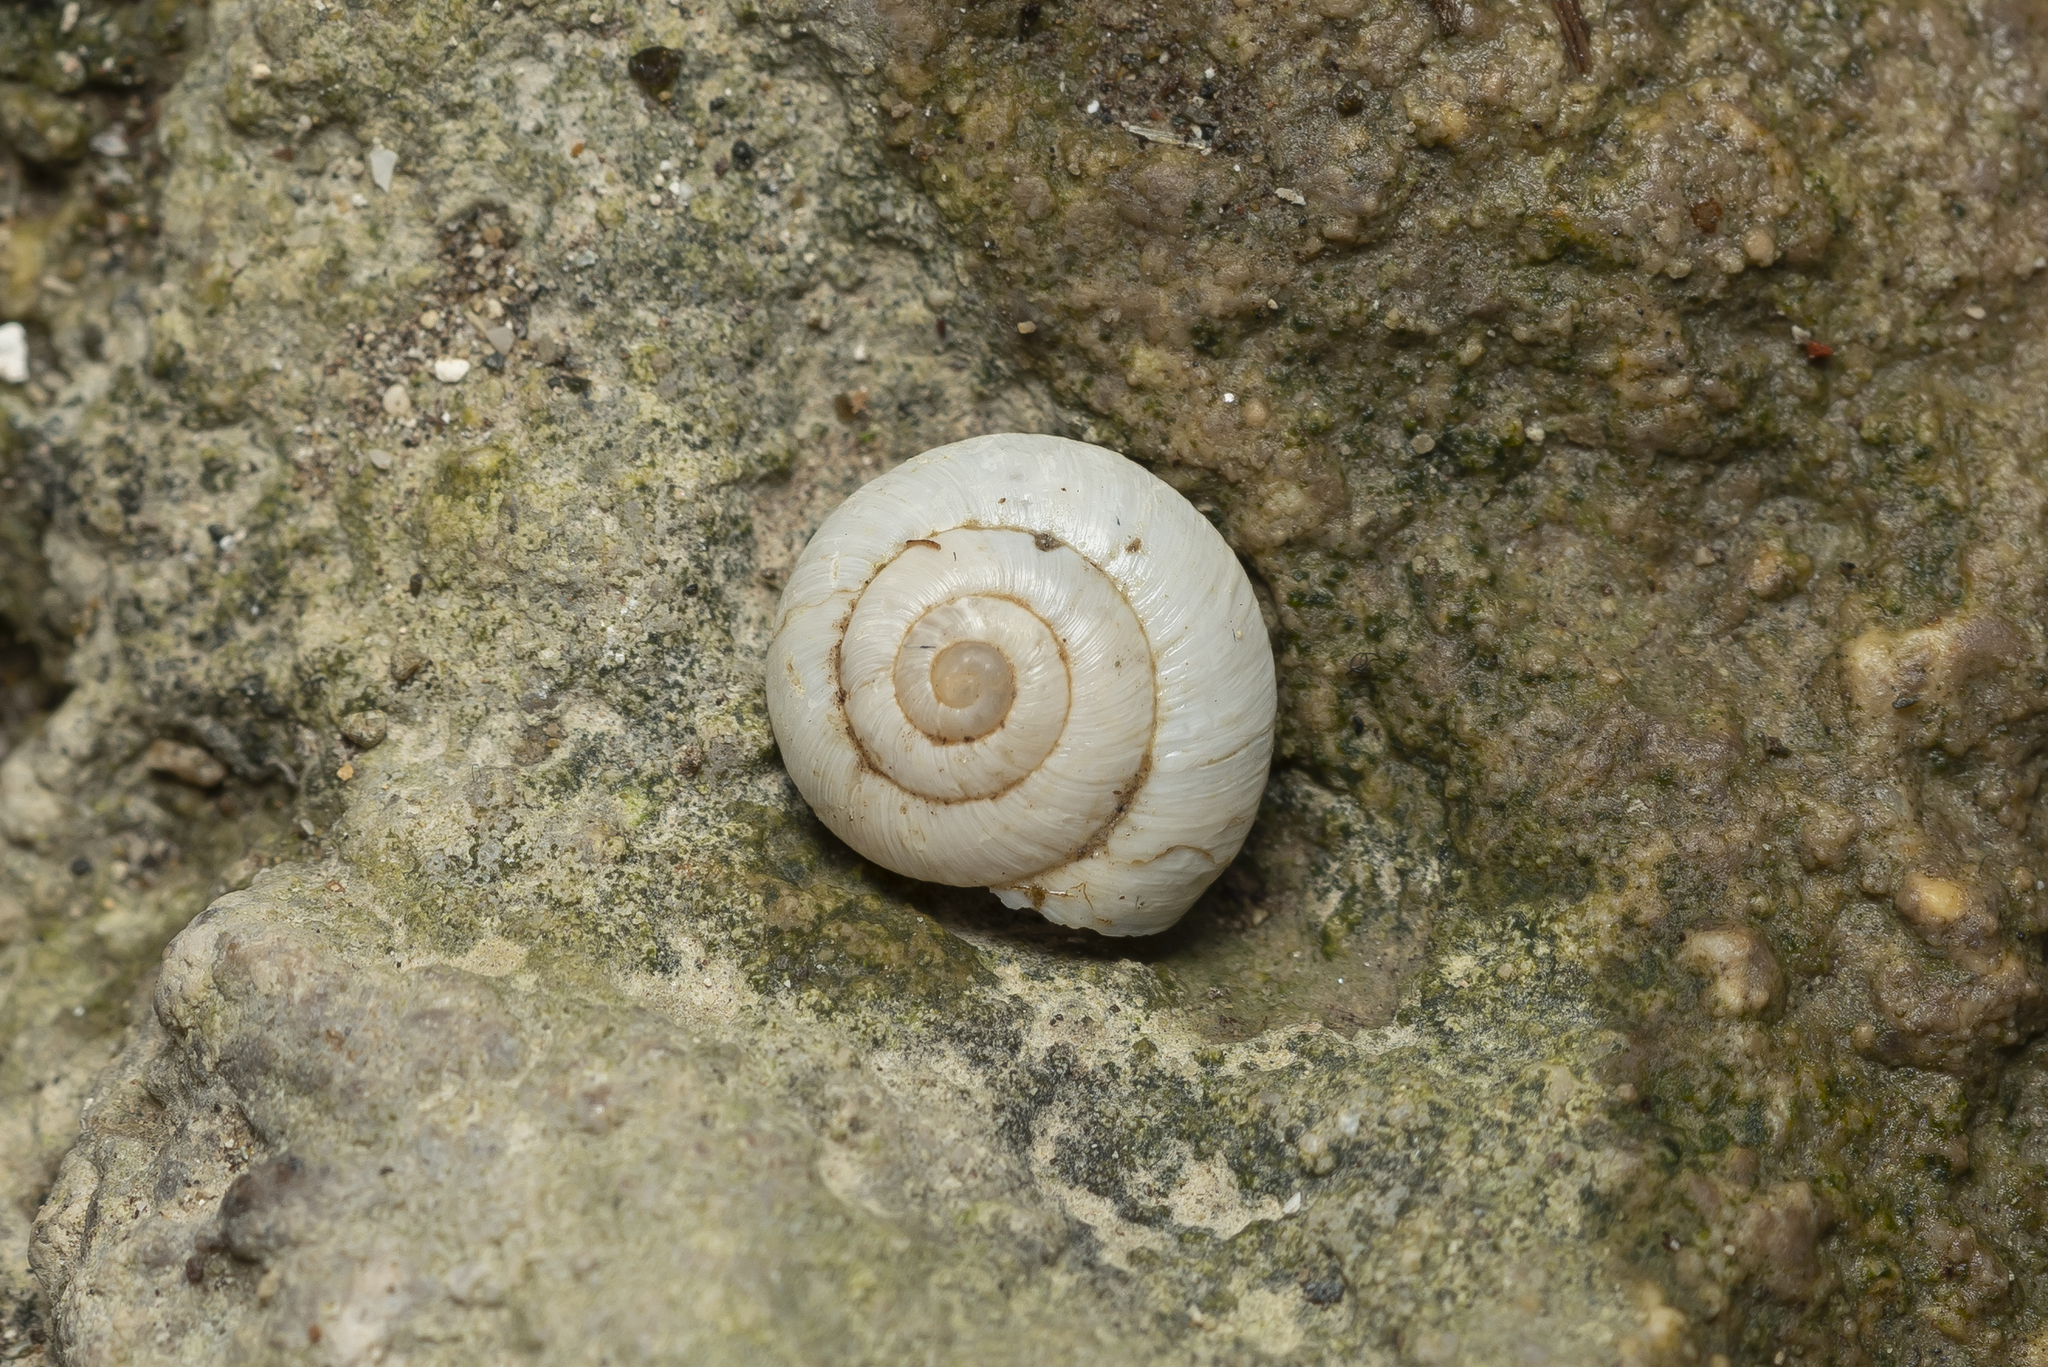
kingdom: Animalia
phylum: Mollusca
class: Gastropoda
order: Stylommatophora
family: Geomitridae
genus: Cernuella
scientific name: Cernuella virgata
